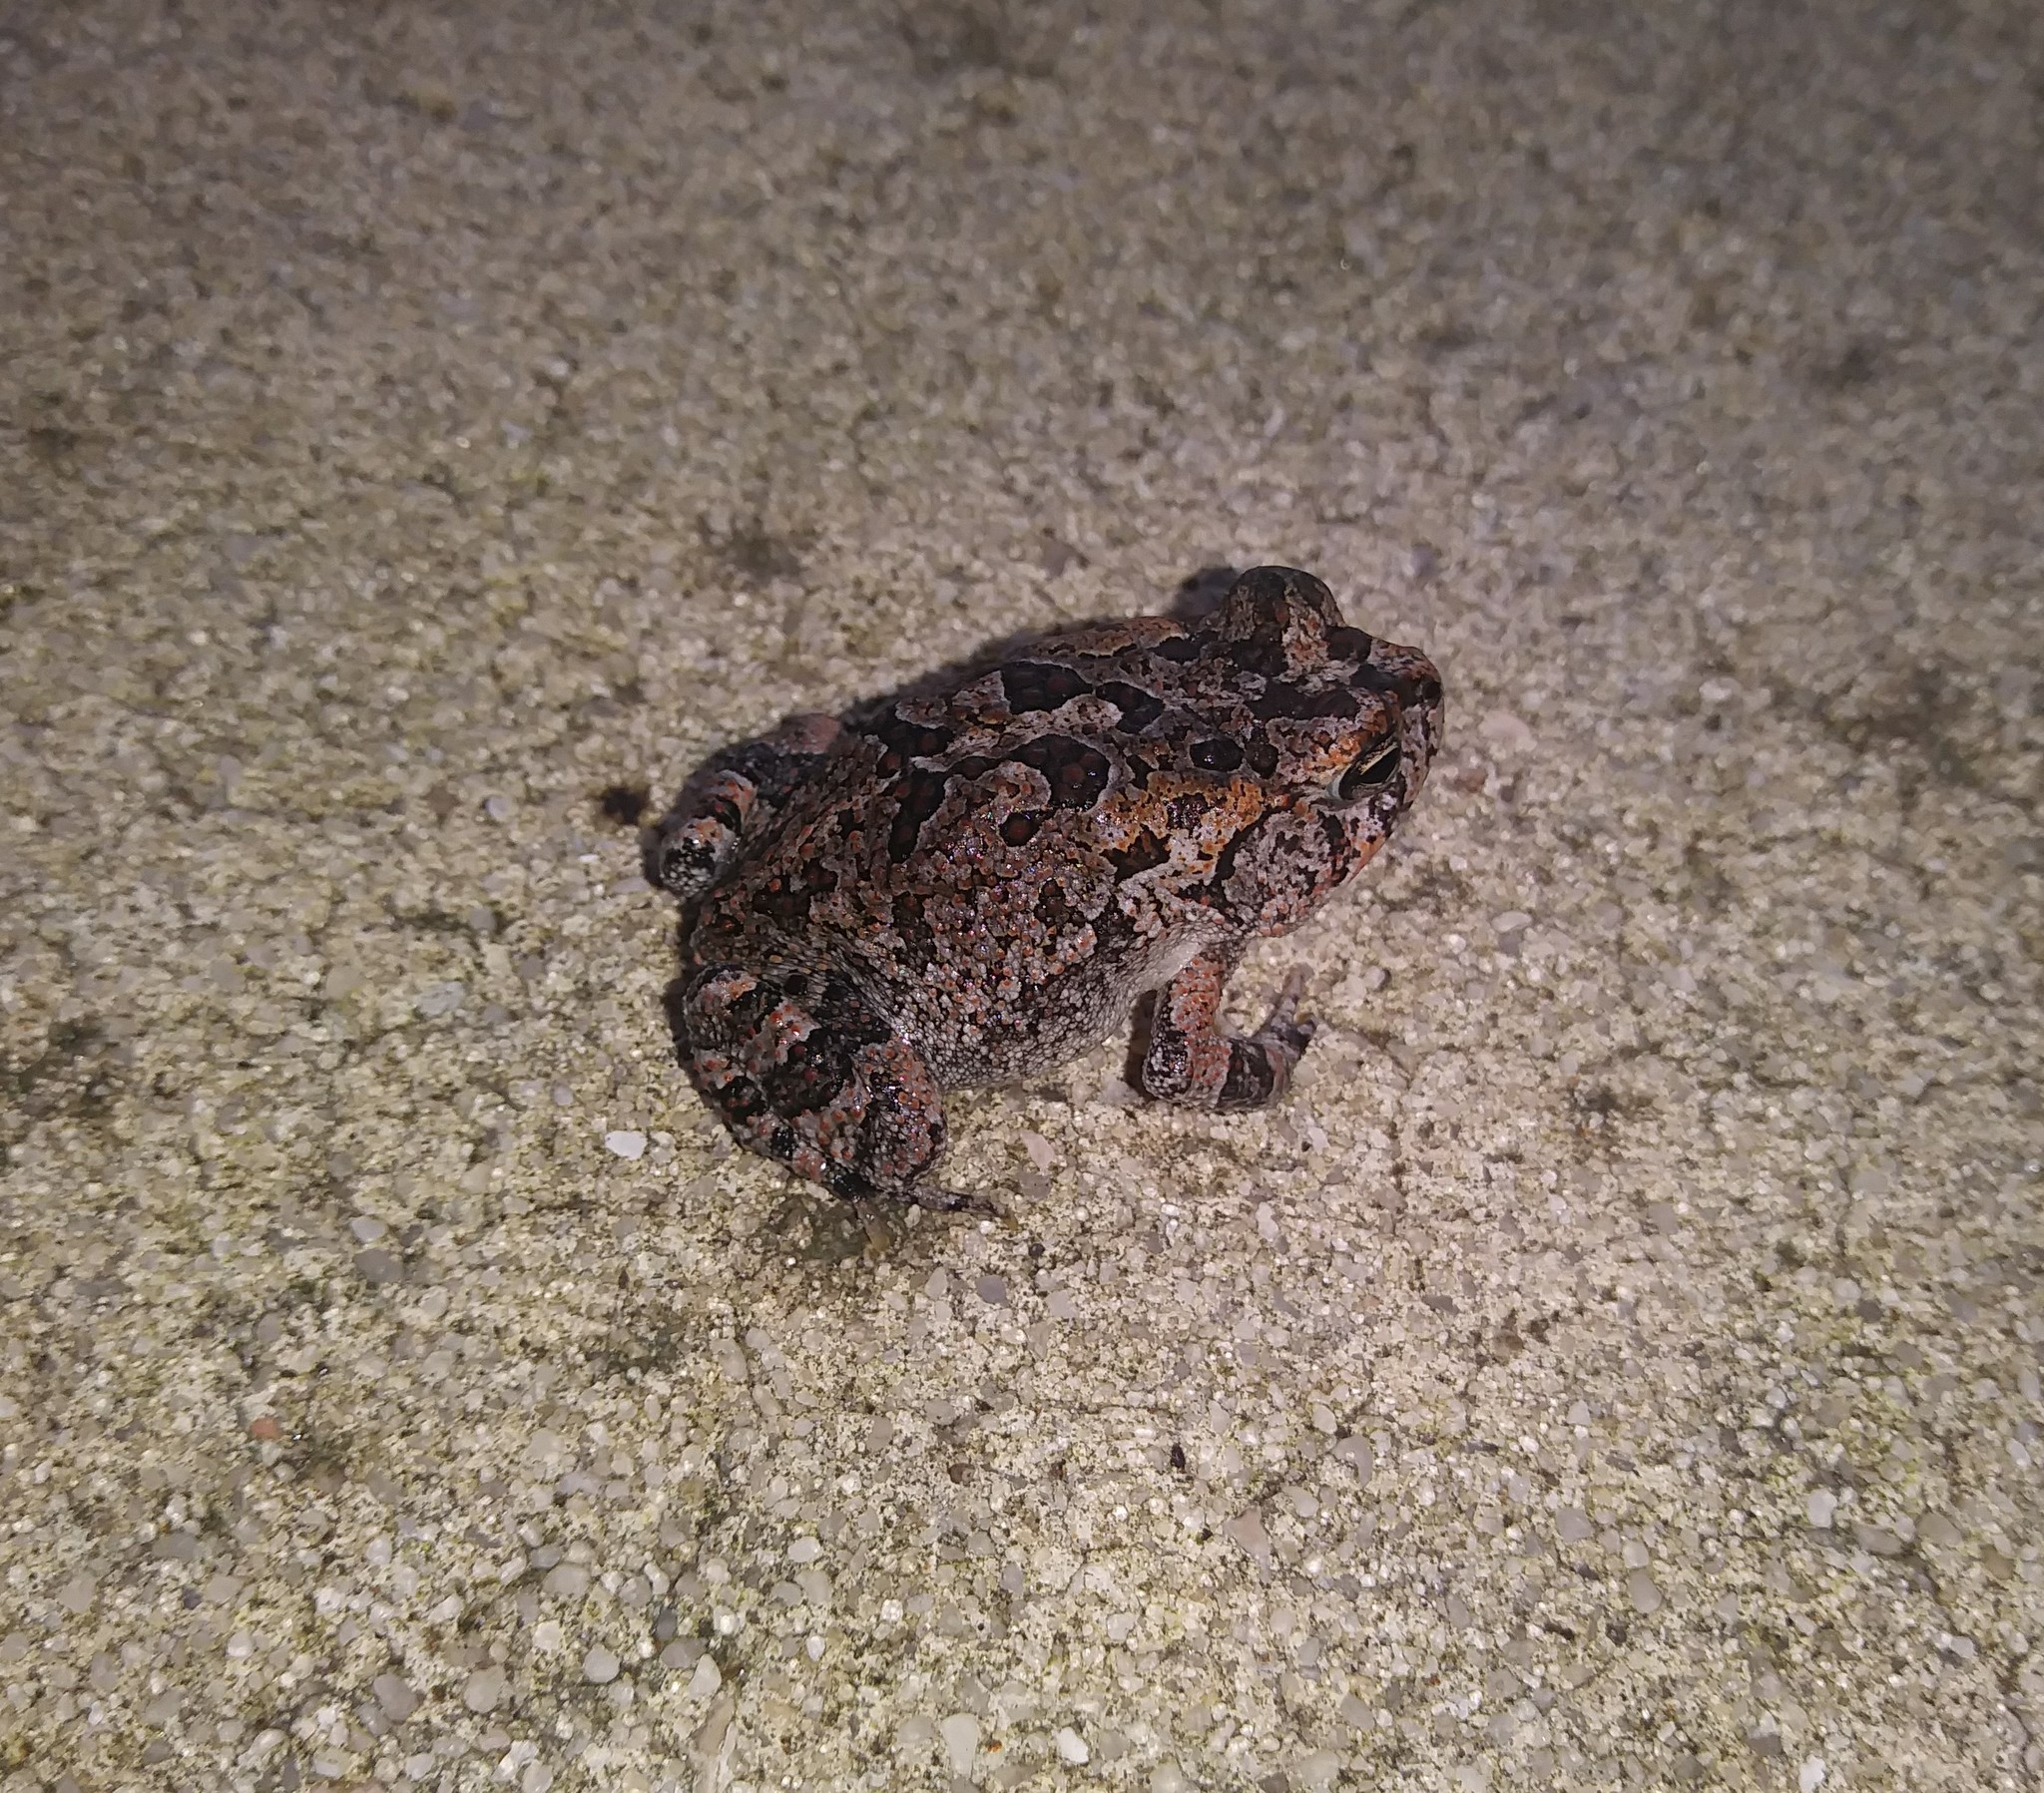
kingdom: Animalia
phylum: Chordata
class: Amphibia
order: Anura
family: Bufonidae
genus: Anaxyrus
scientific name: Anaxyrus terrestris
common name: Southern toad
